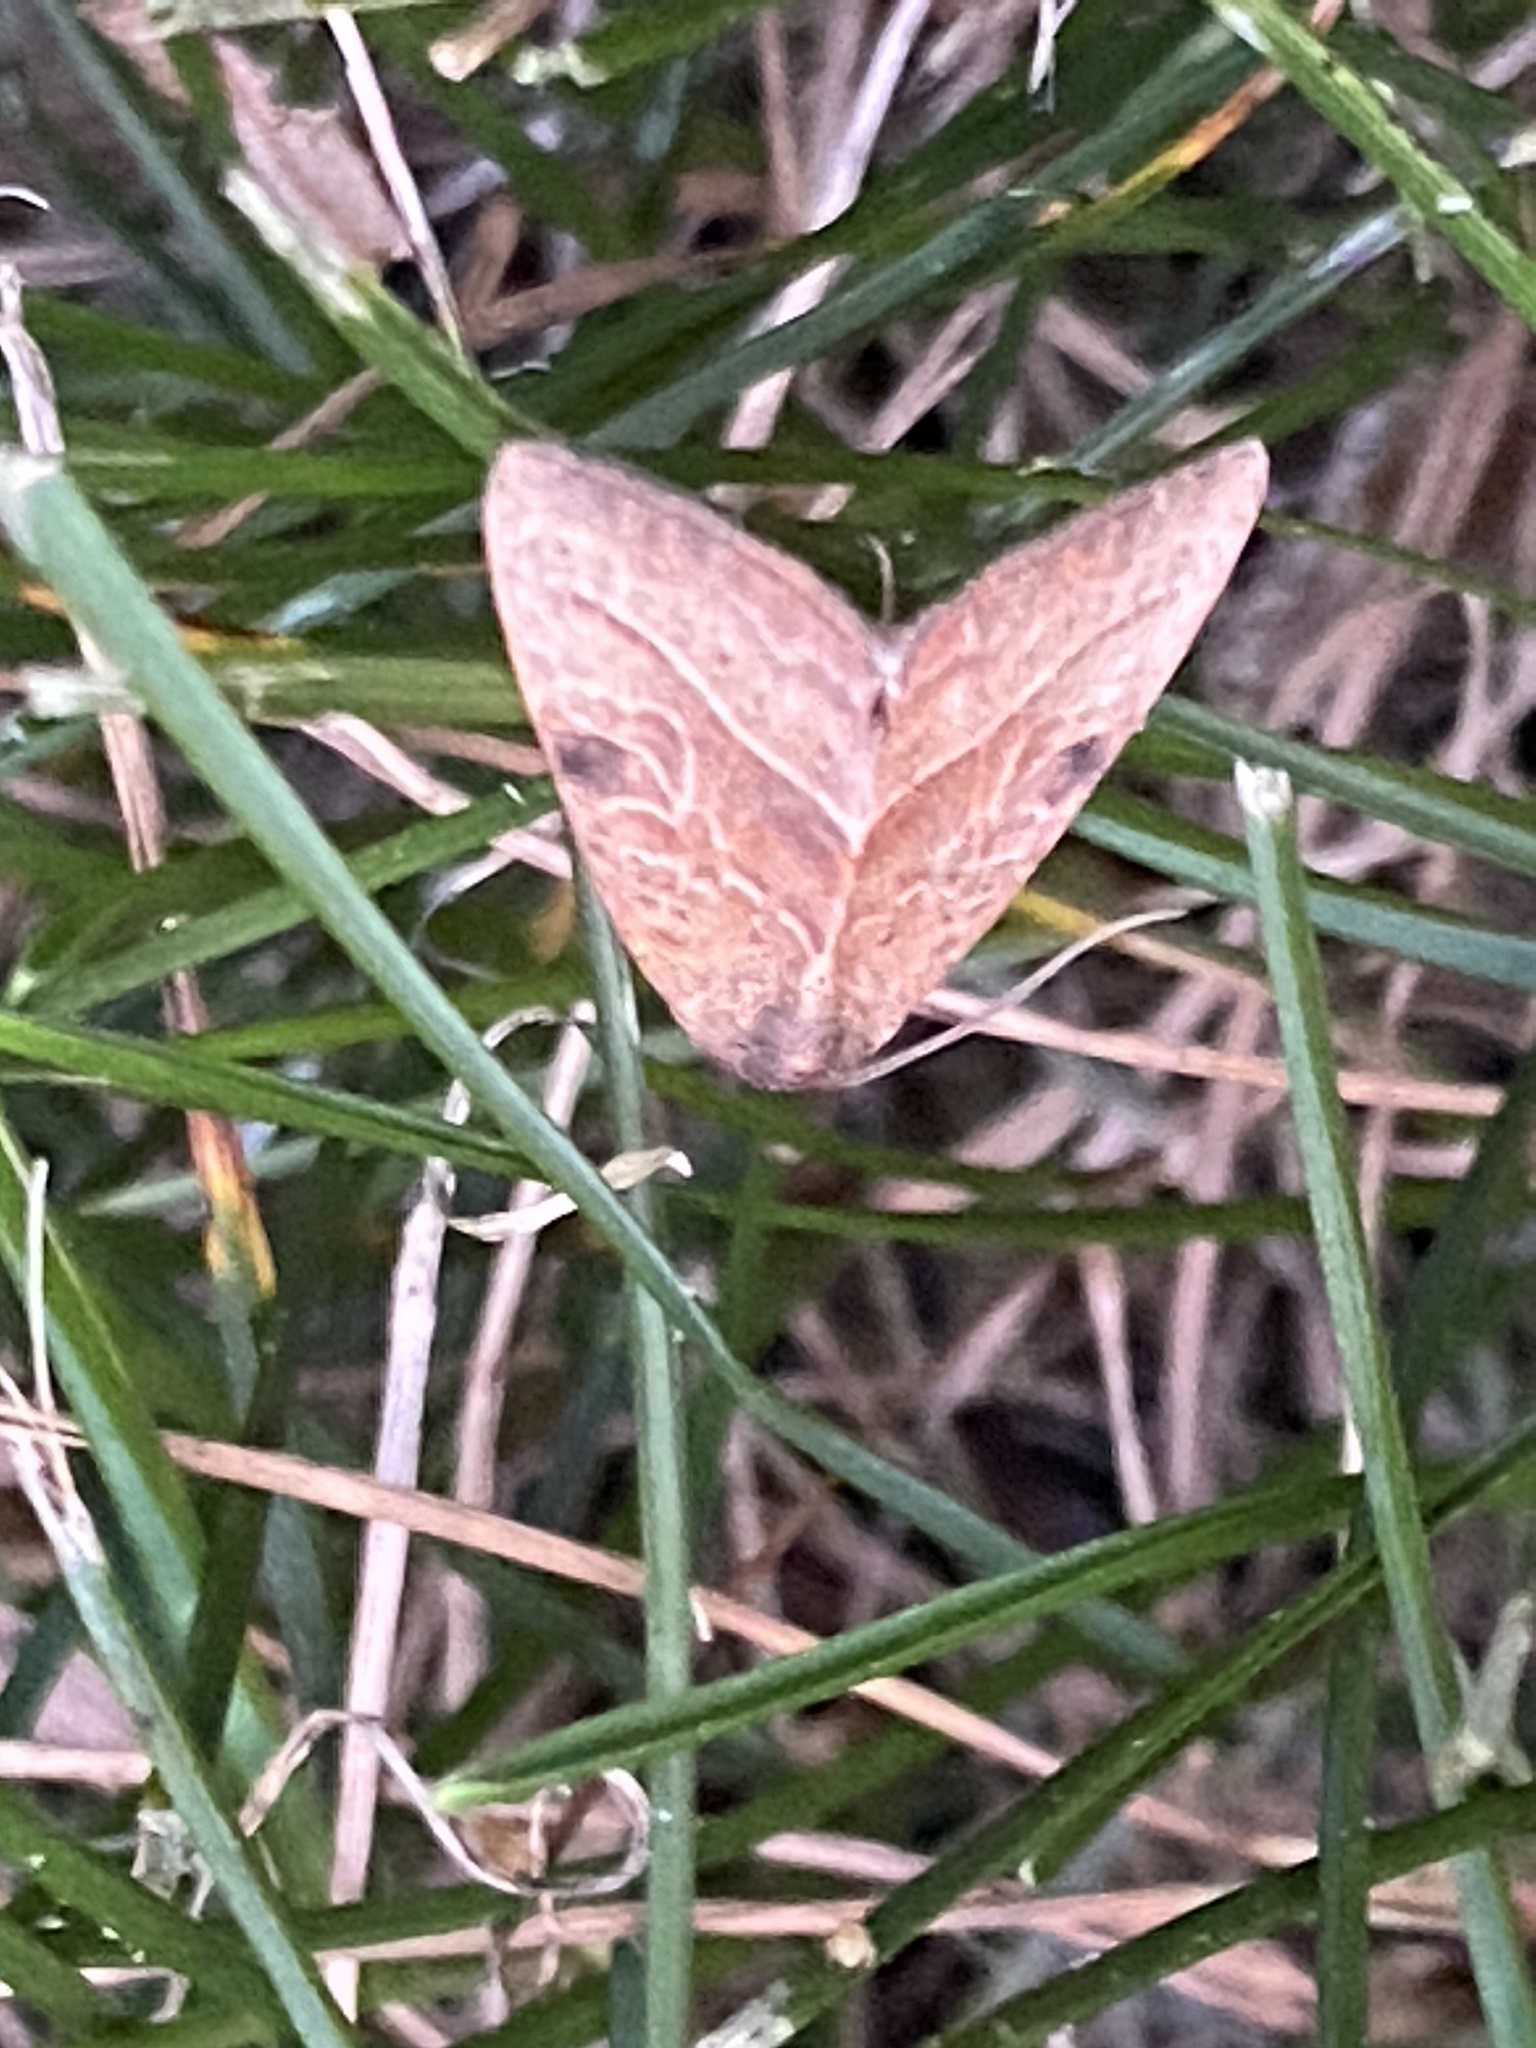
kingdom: Animalia
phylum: Arthropoda
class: Insecta
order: Lepidoptera
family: Noctuidae
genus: Galgula
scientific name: Galgula partita
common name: Wedgeling
